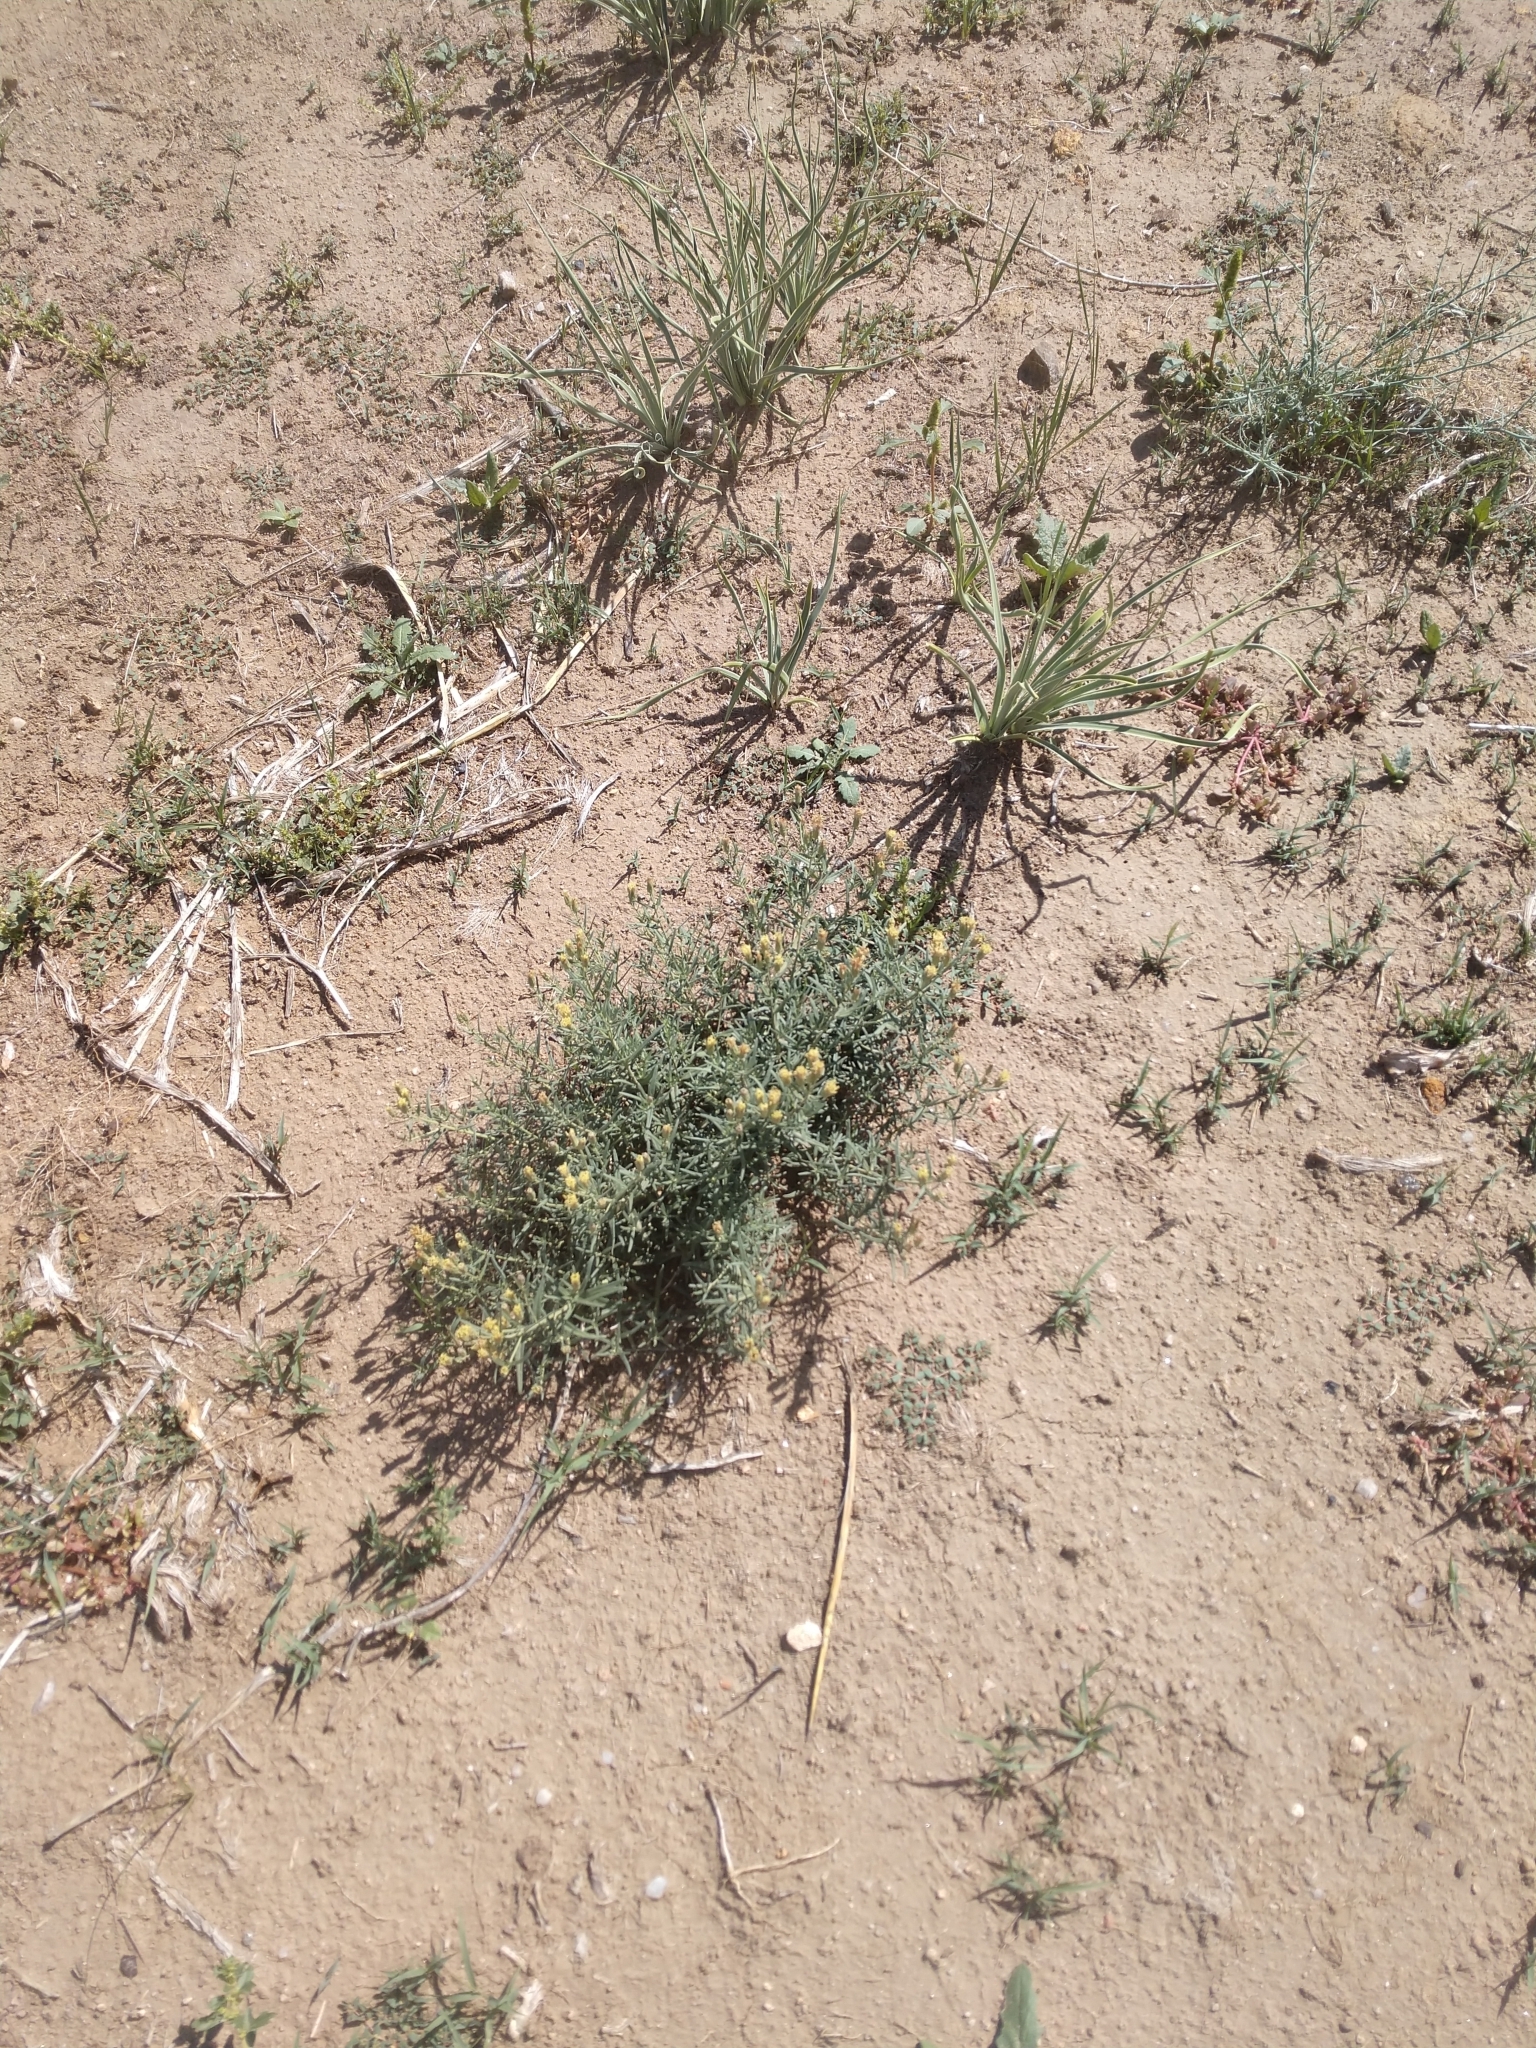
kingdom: Plantae
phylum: Tracheophyta
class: Magnoliopsida
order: Asterales
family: Asteraceae
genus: Brickellia
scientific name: Brickellia eupatorioides
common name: False boneset
